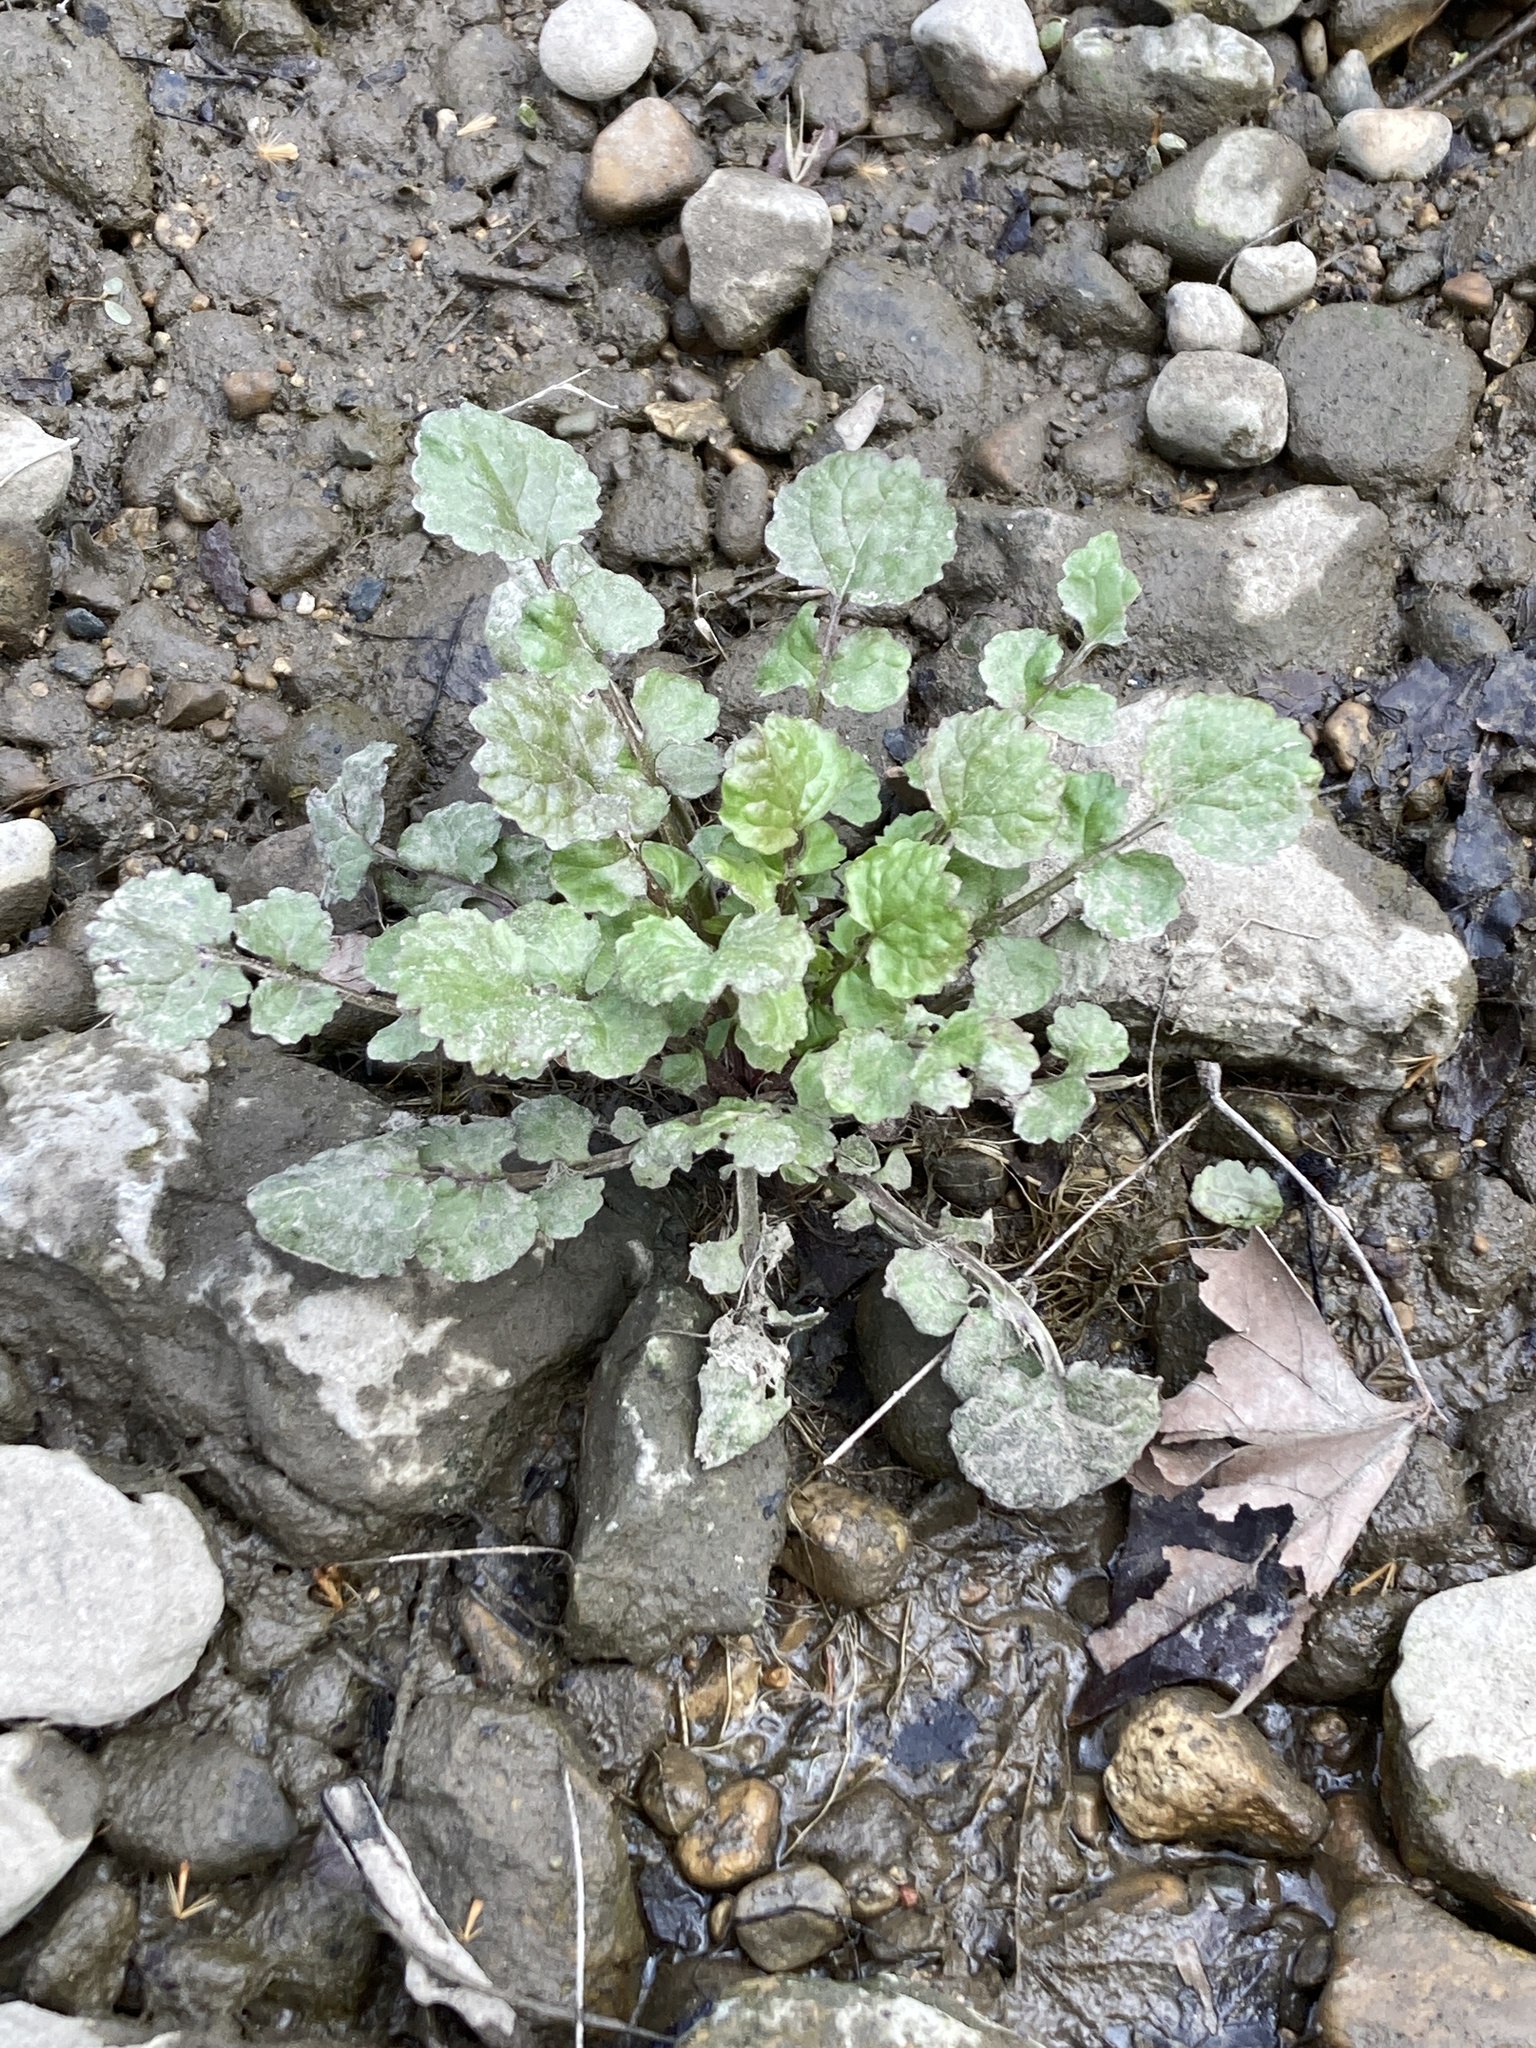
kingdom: Plantae
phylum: Tracheophyta
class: Magnoliopsida
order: Asterales
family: Asteraceae
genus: Packera
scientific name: Packera glabella
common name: Butterweed
